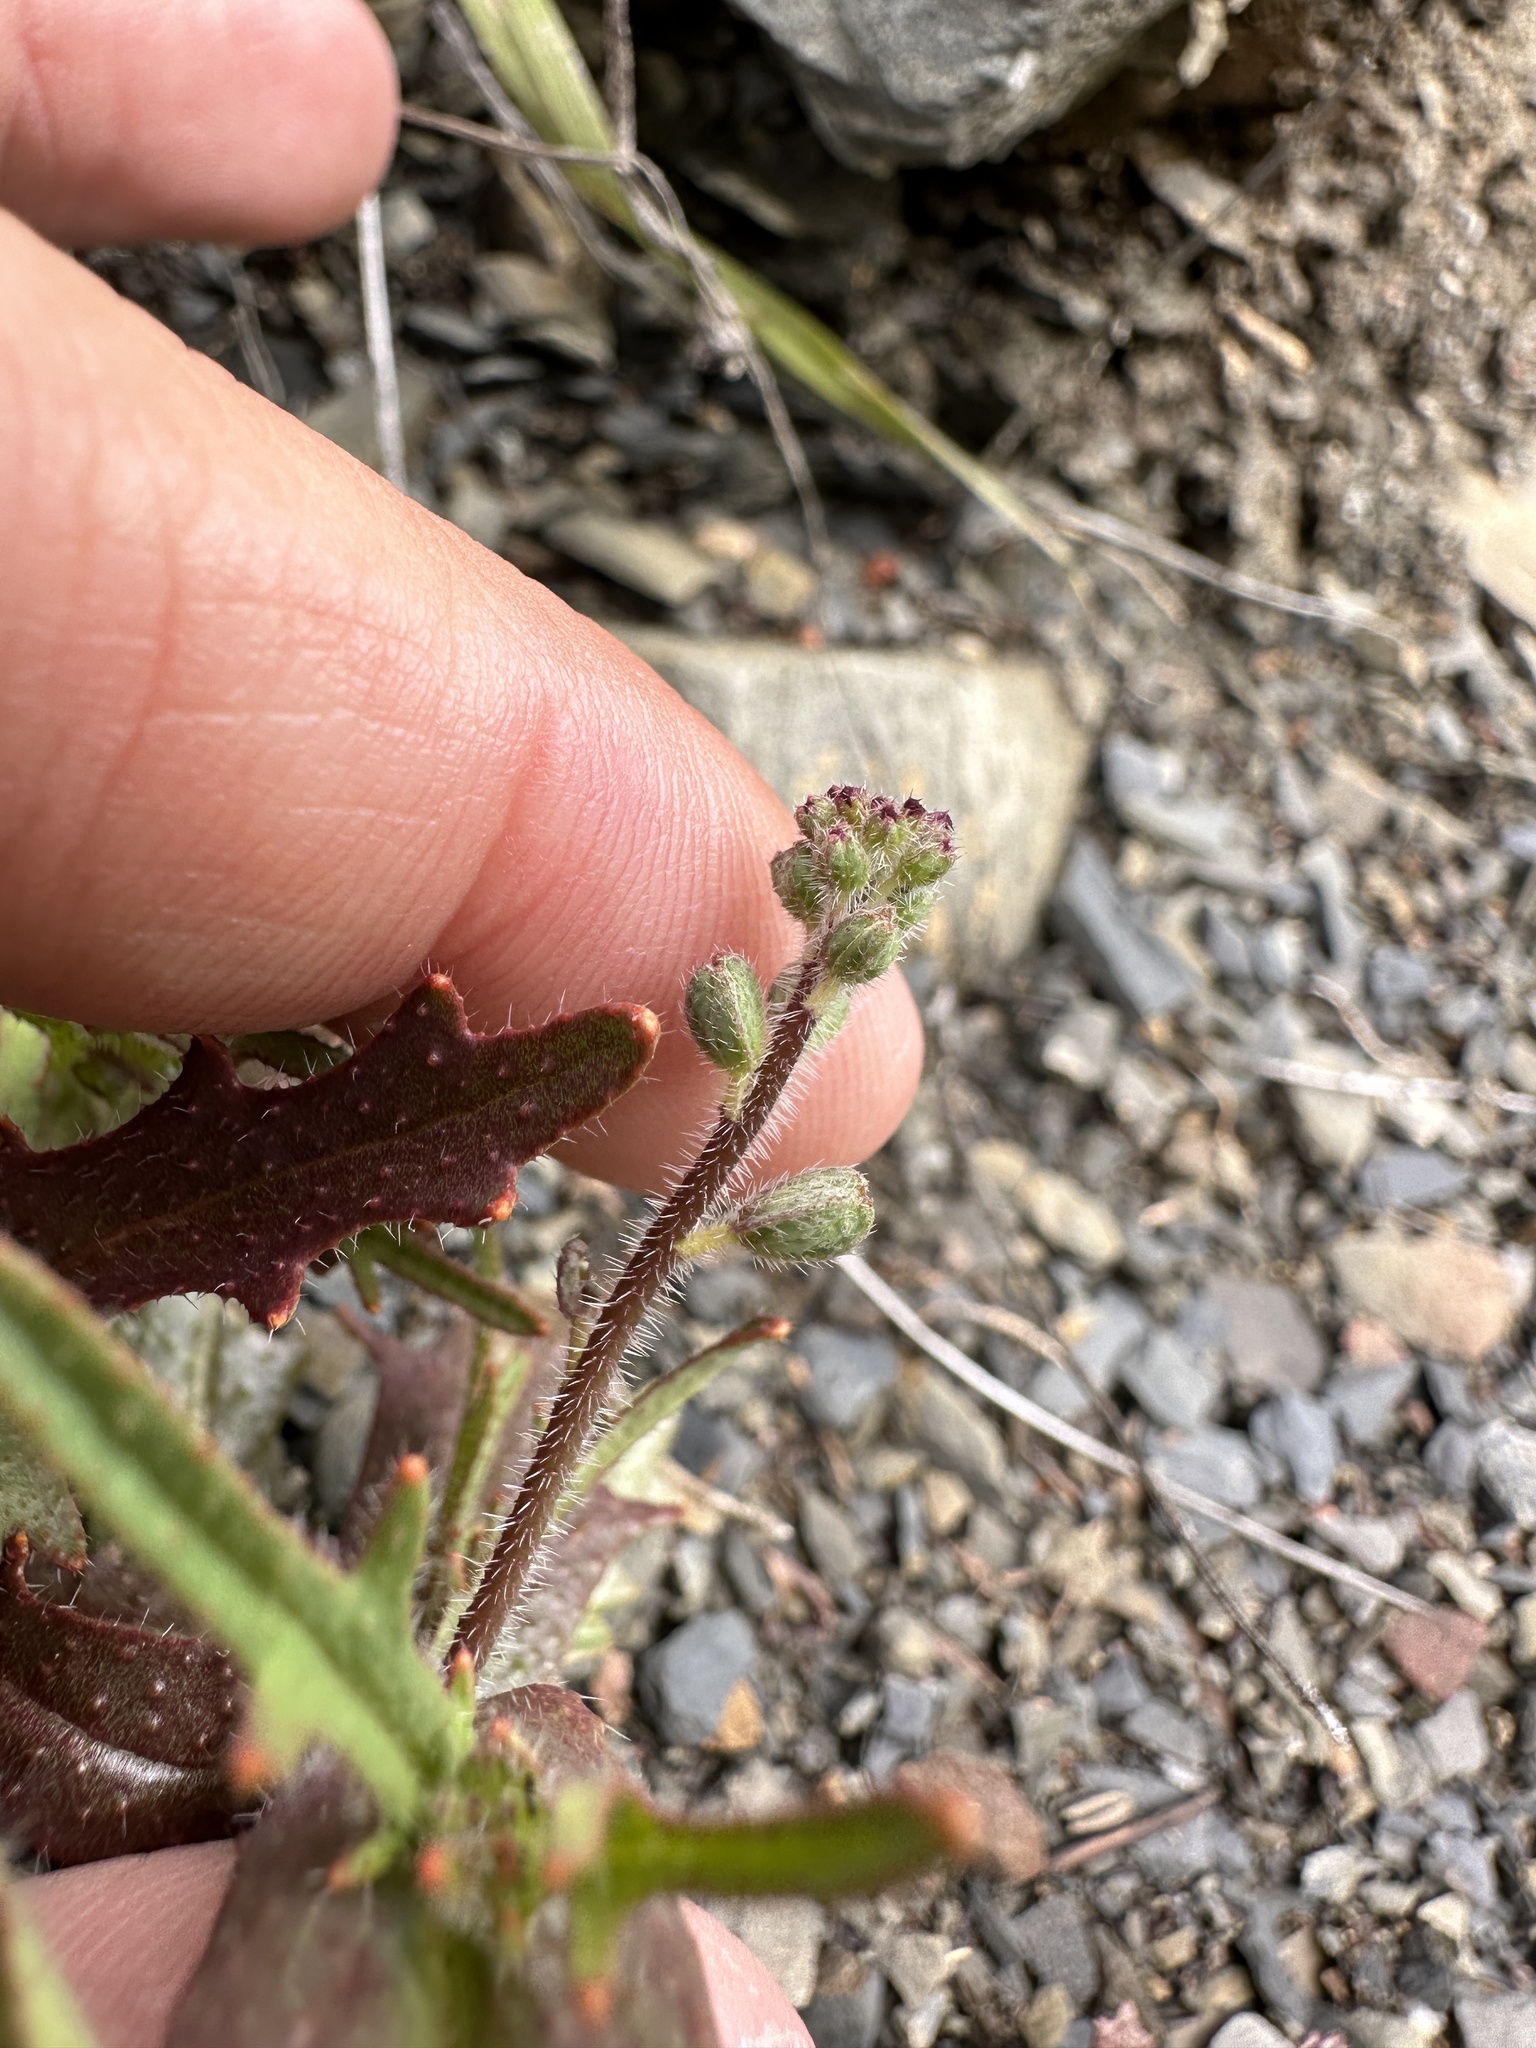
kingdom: Plantae
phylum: Tracheophyta
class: Magnoliopsida
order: Brassicales
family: Brassicaceae
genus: Streptanthus
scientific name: Streptanthus insignis
